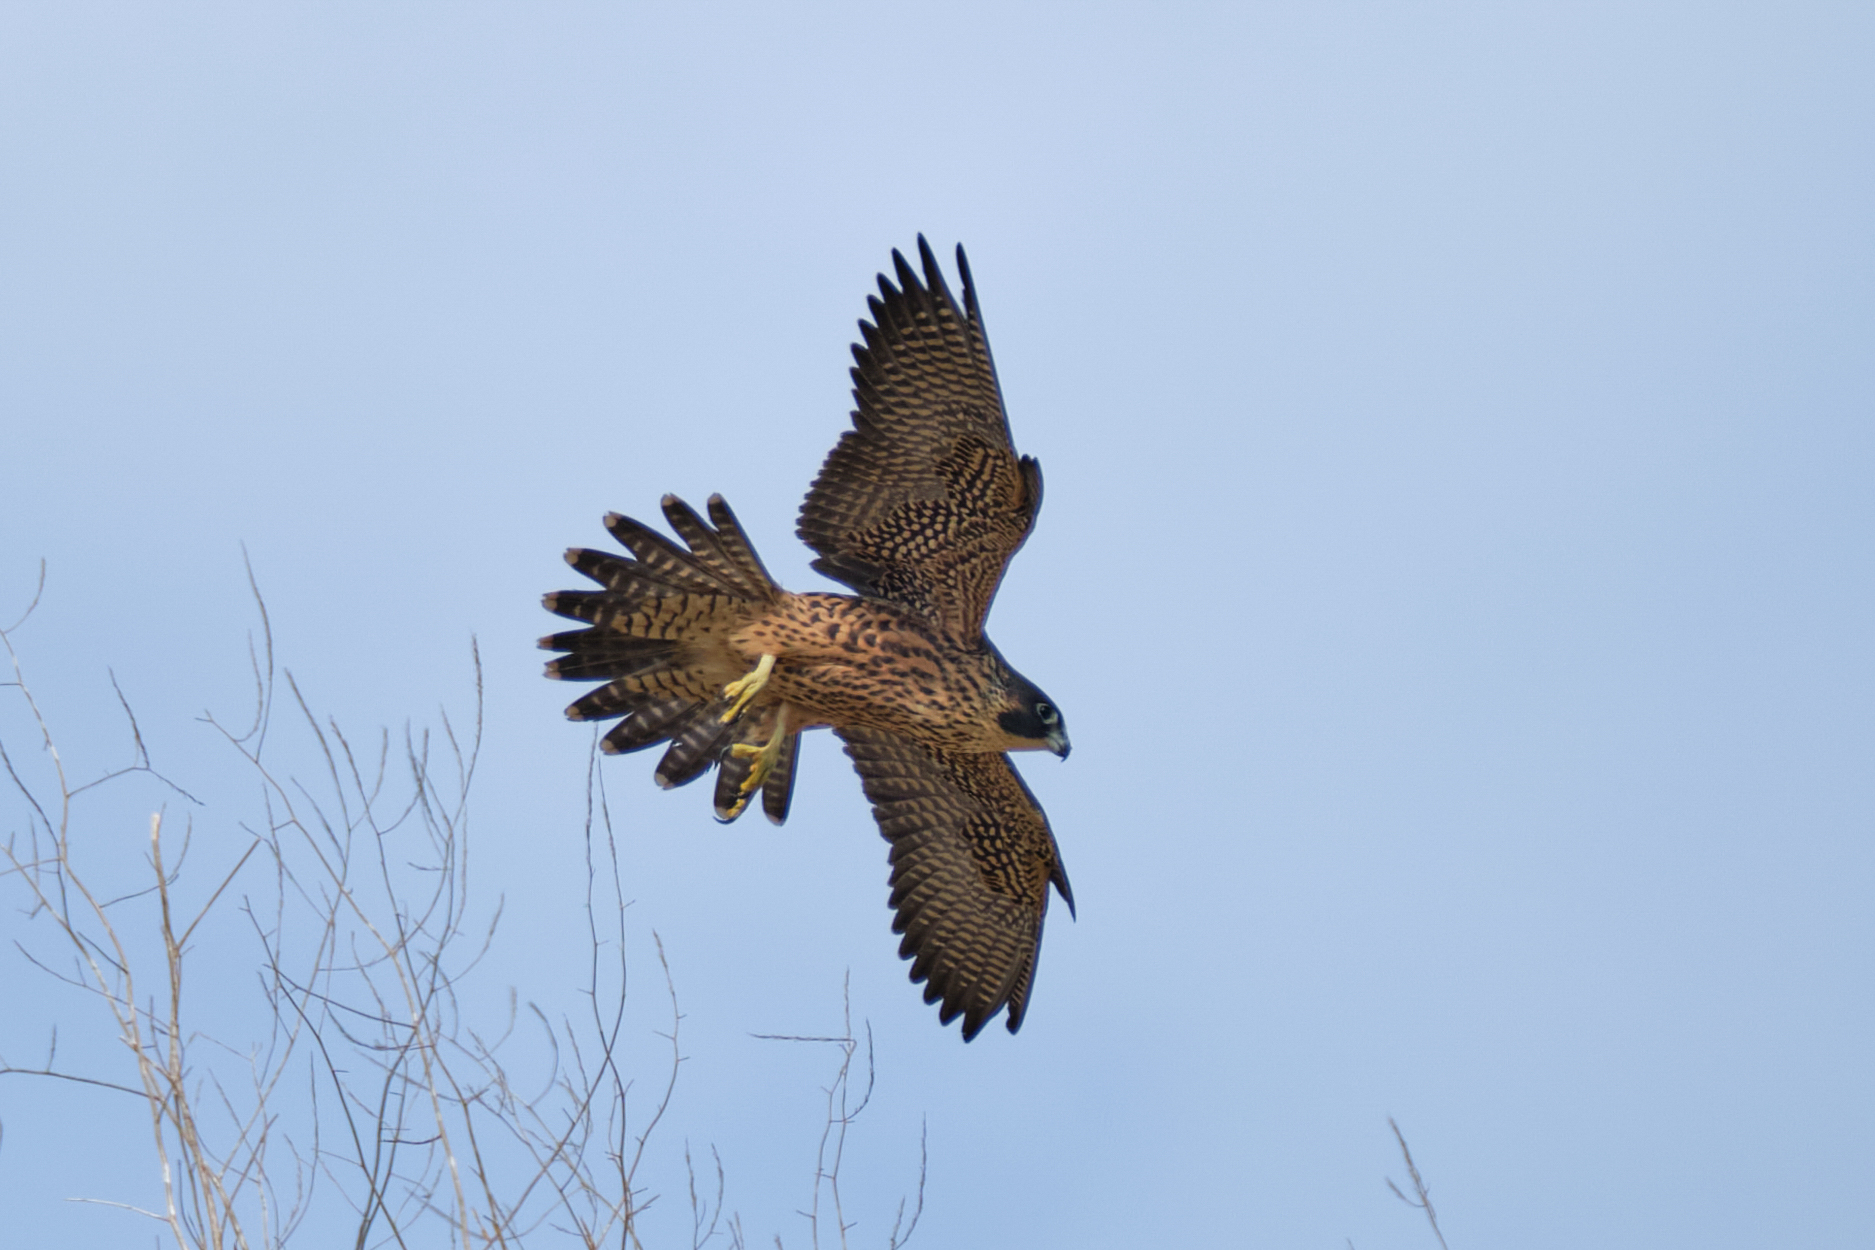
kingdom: Animalia
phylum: Chordata
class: Aves
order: Falconiformes
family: Falconidae
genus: Falco
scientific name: Falco peregrinus
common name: Peregrine falcon
